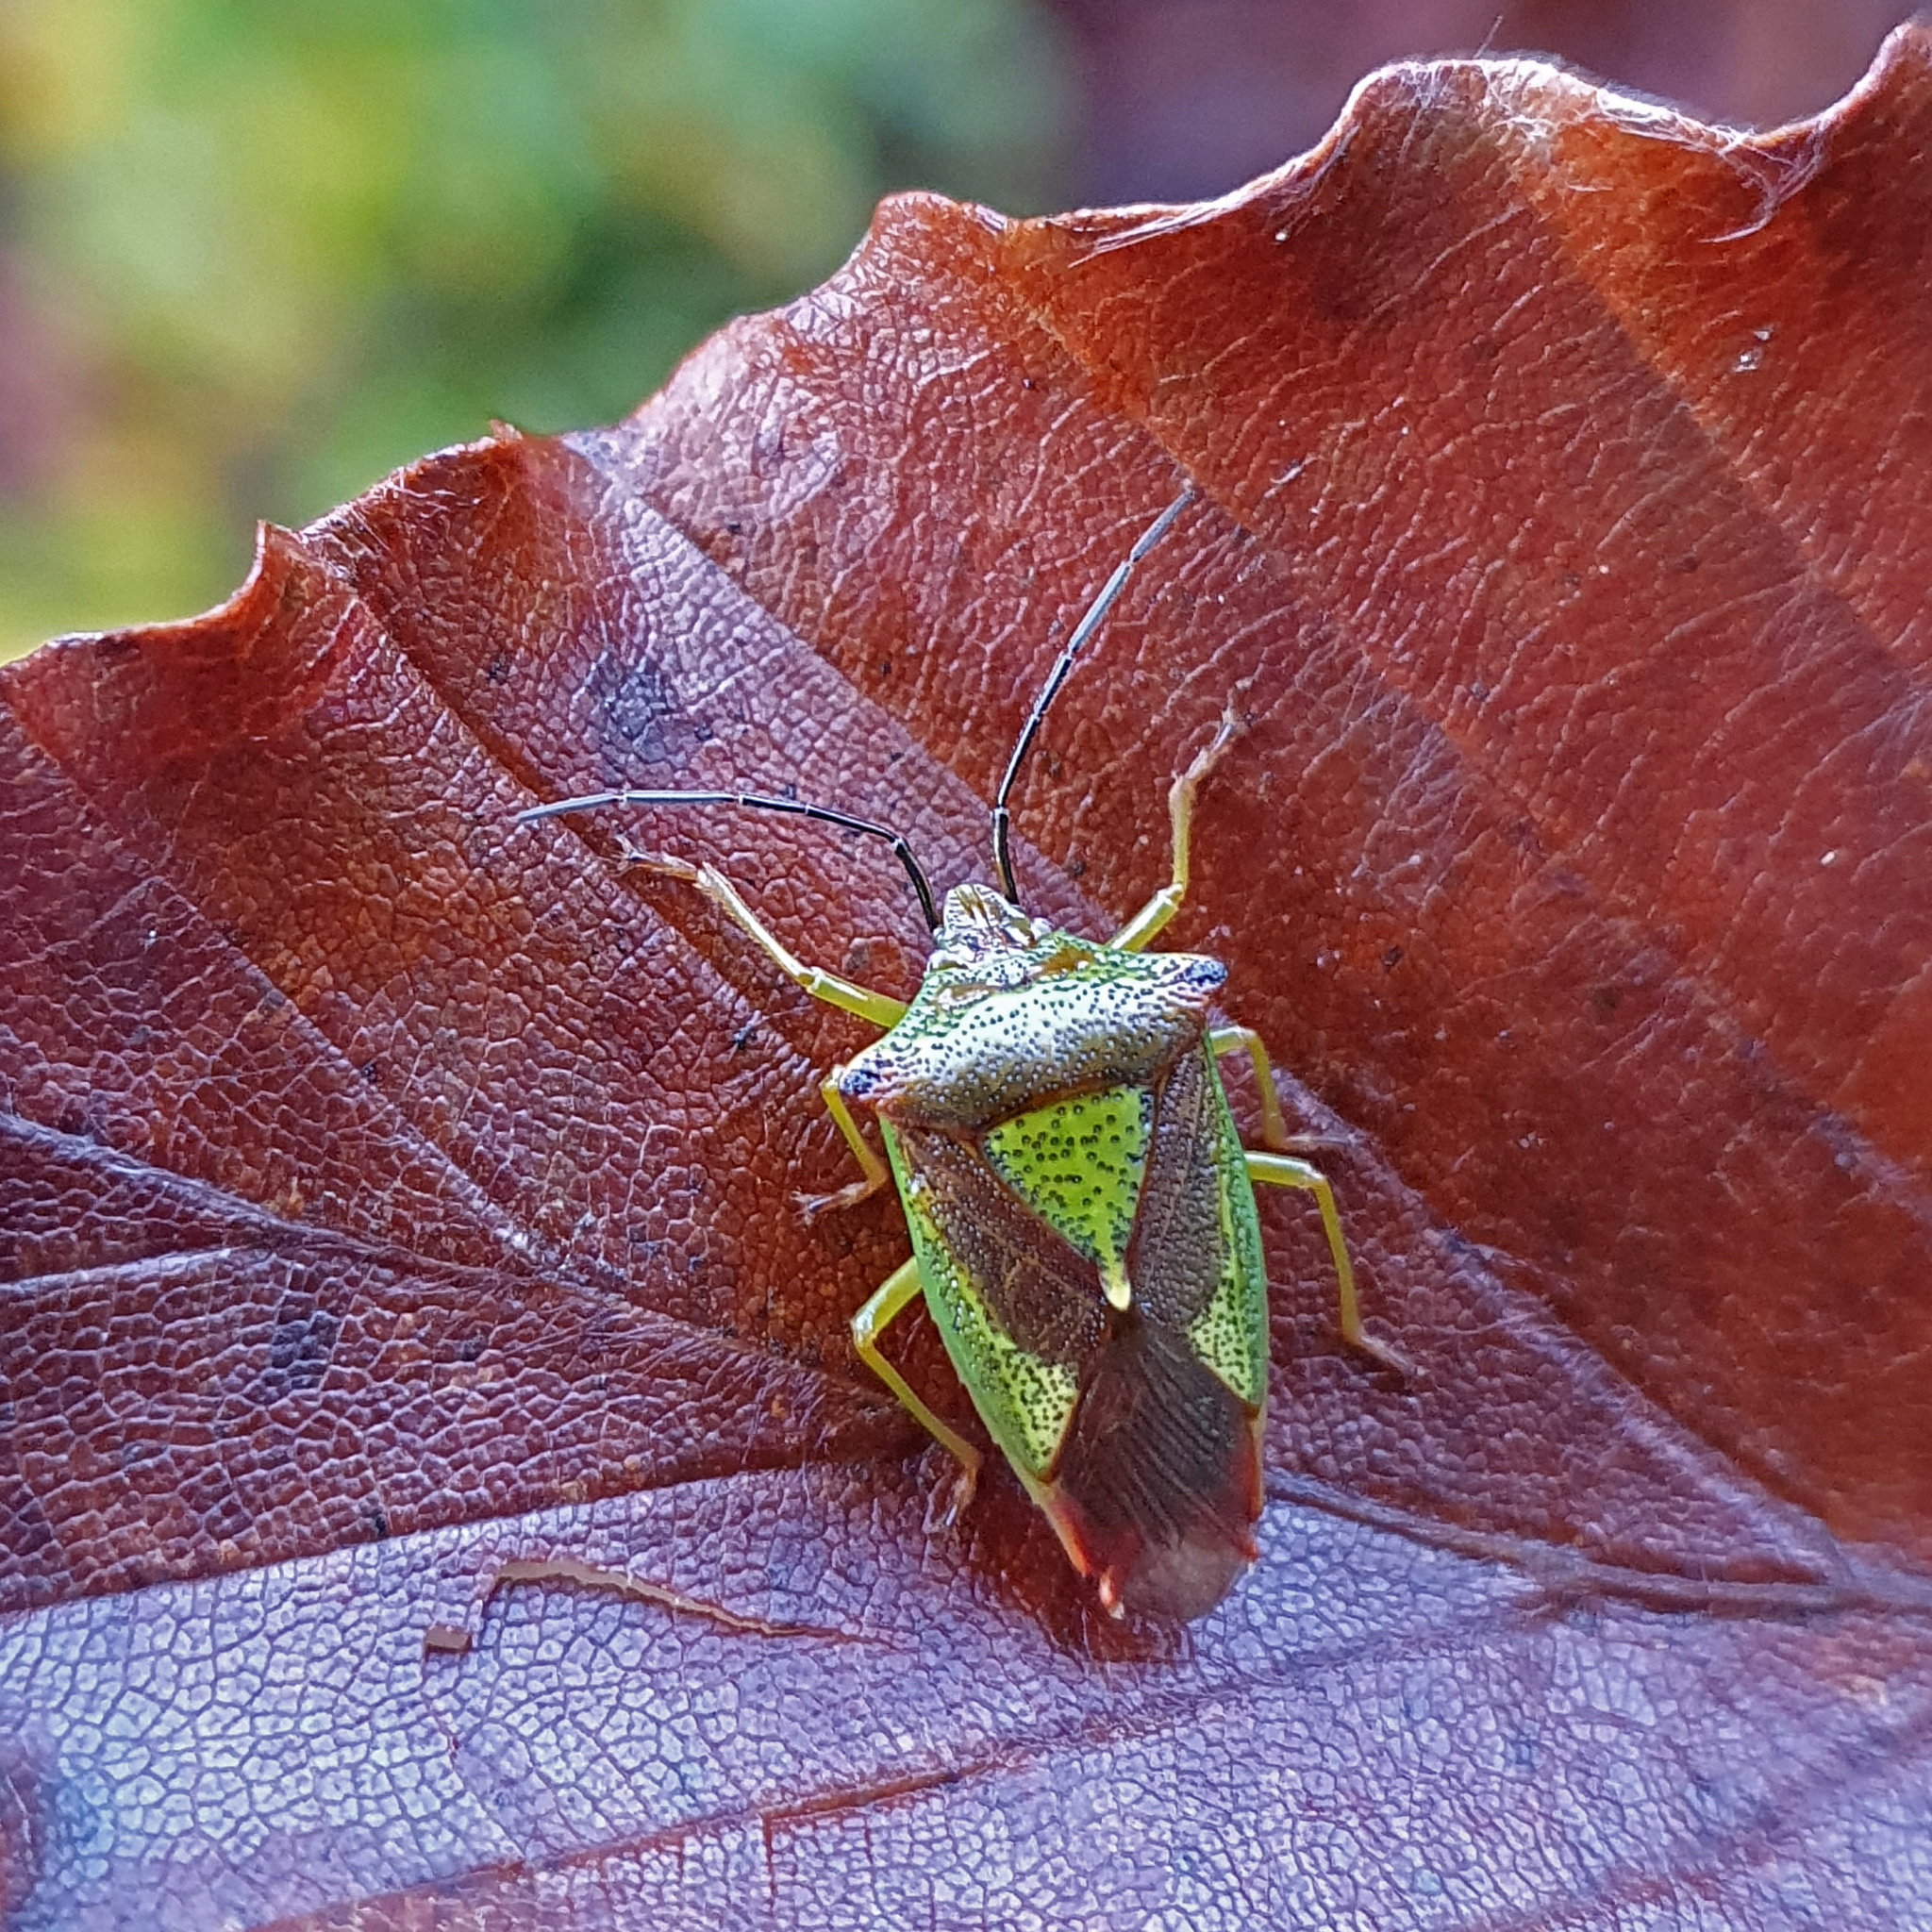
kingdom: Animalia
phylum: Arthropoda
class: Insecta
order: Hemiptera
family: Acanthosomatidae
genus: Acanthosoma
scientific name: Acanthosoma haemorrhoidale
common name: Hawthorn shieldbug
